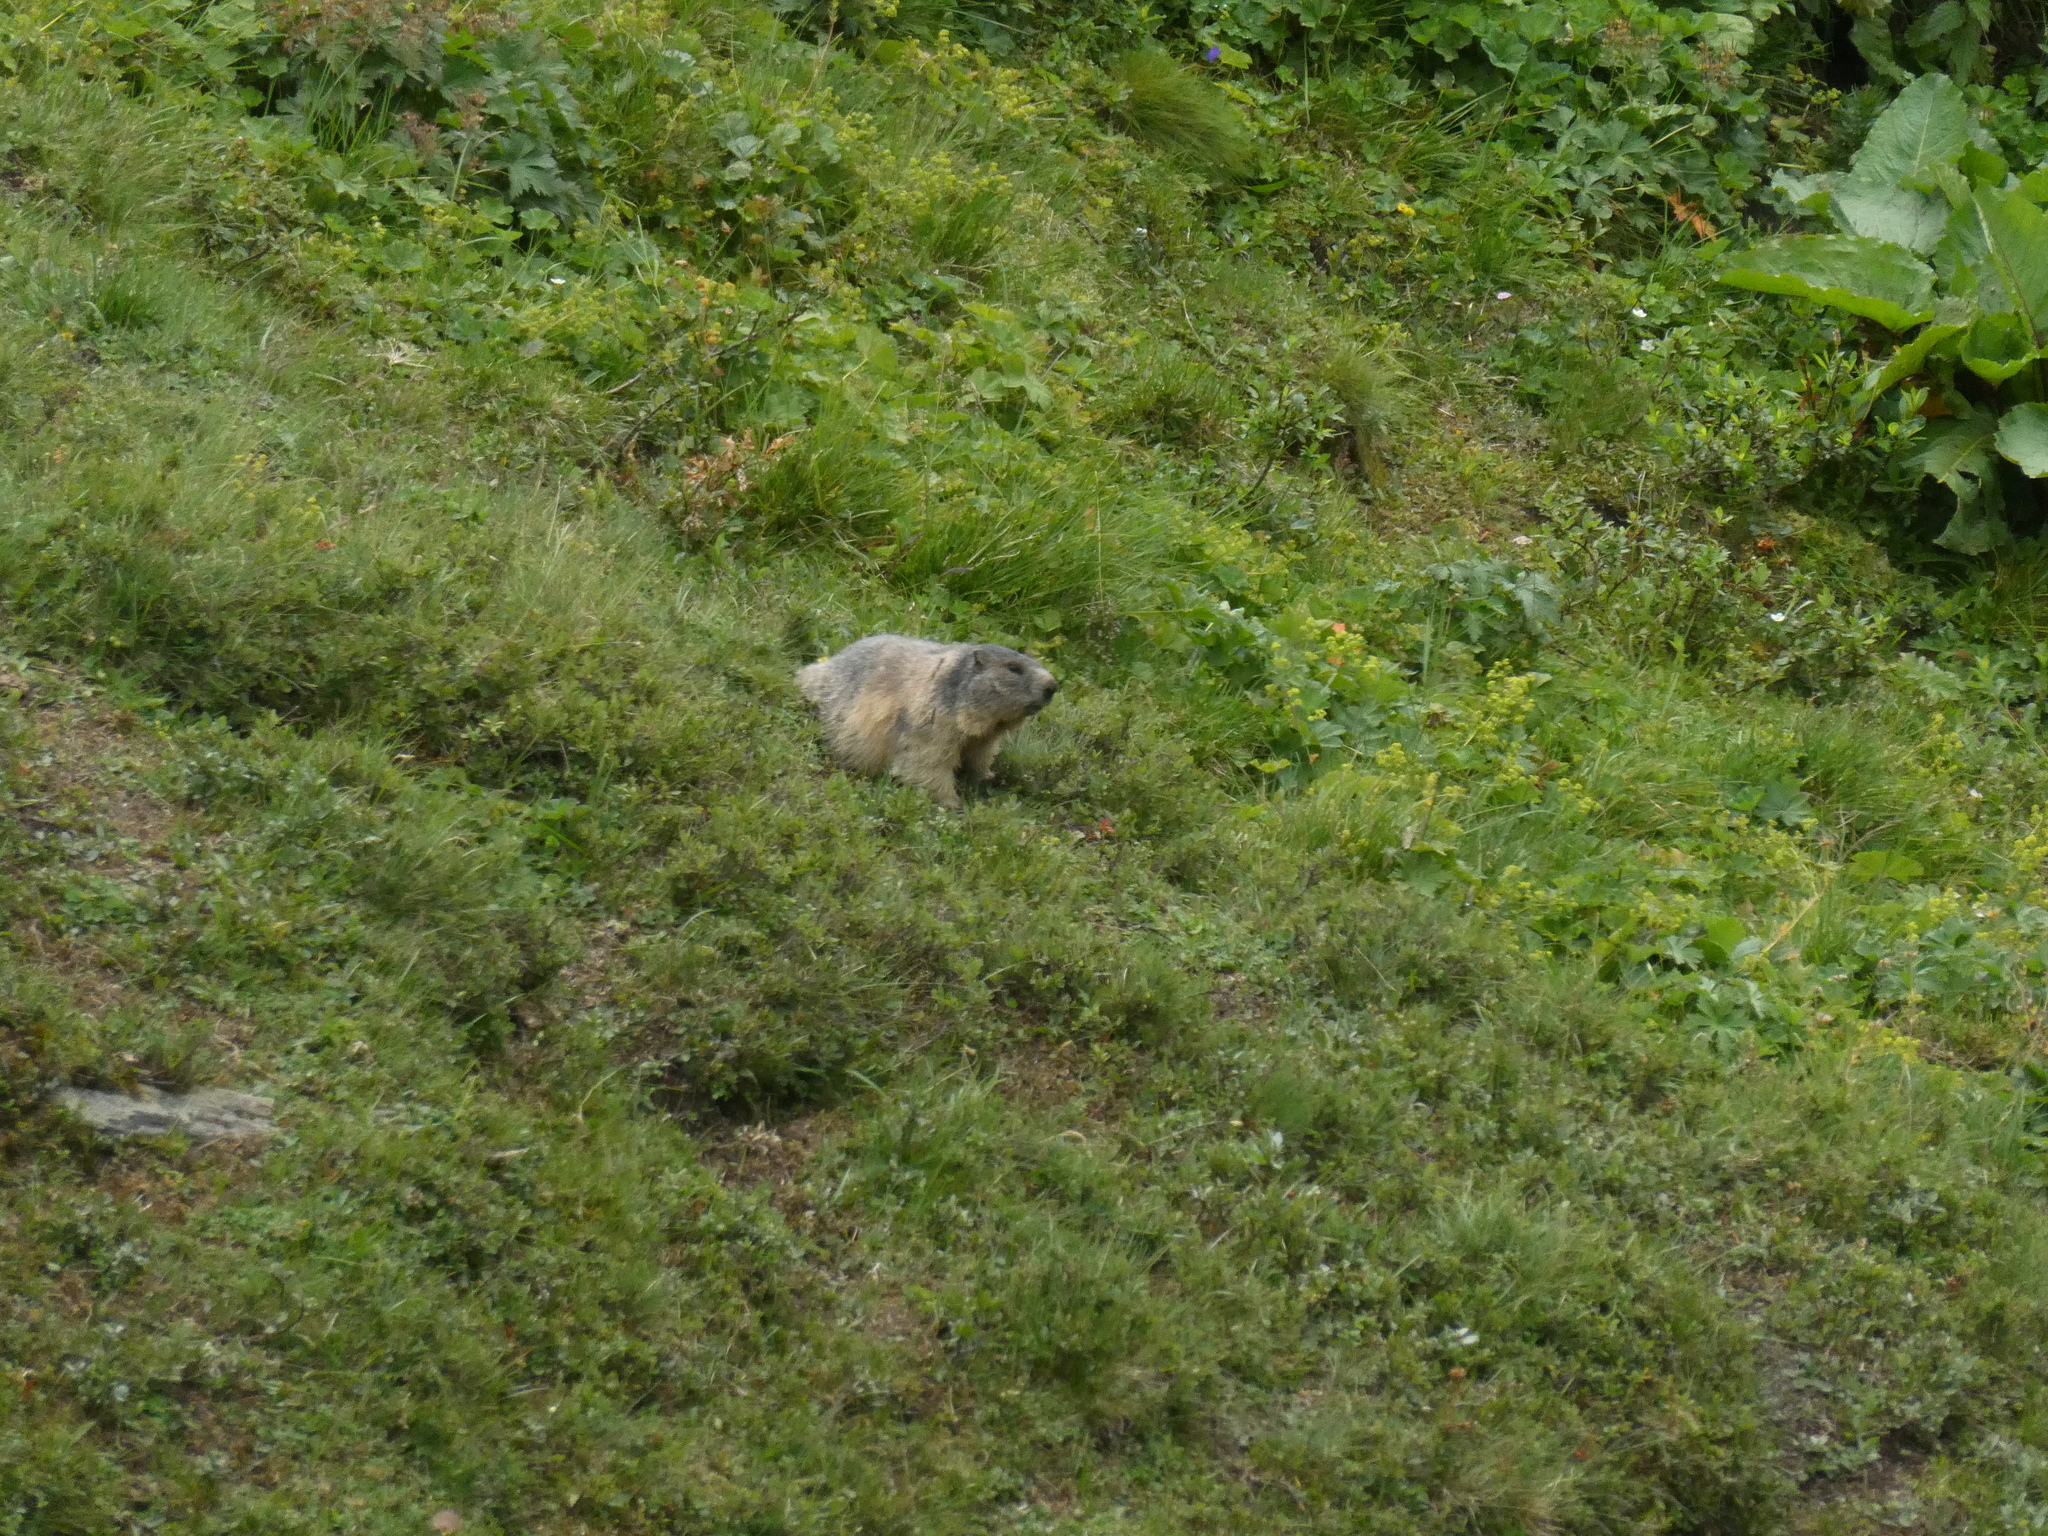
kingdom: Animalia
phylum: Chordata
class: Mammalia
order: Rodentia
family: Sciuridae
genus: Marmota
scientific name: Marmota marmota
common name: Alpine marmot
